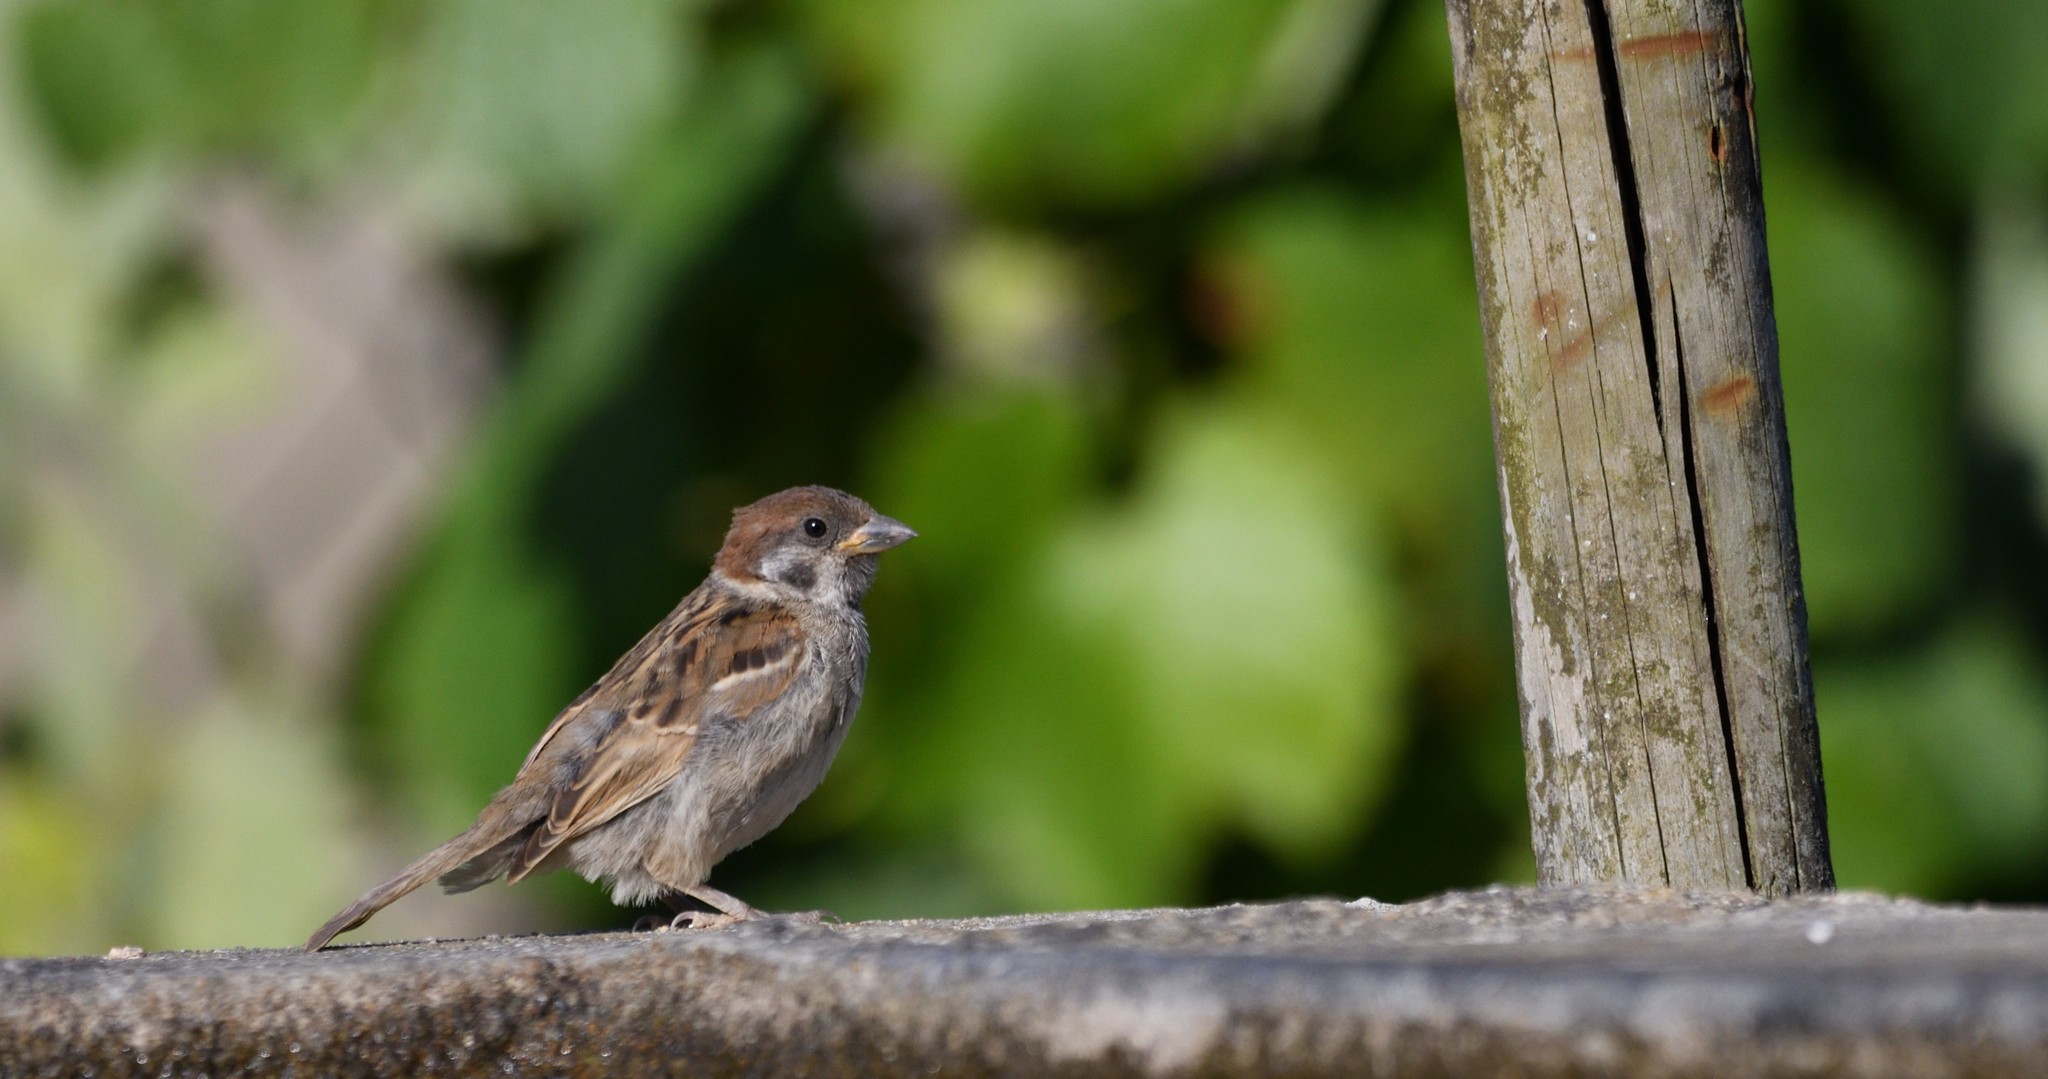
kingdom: Animalia
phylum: Chordata
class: Aves
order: Passeriformes
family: Passeridae
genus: Passer
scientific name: Passer montanus
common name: Eurasian tree sparrow
